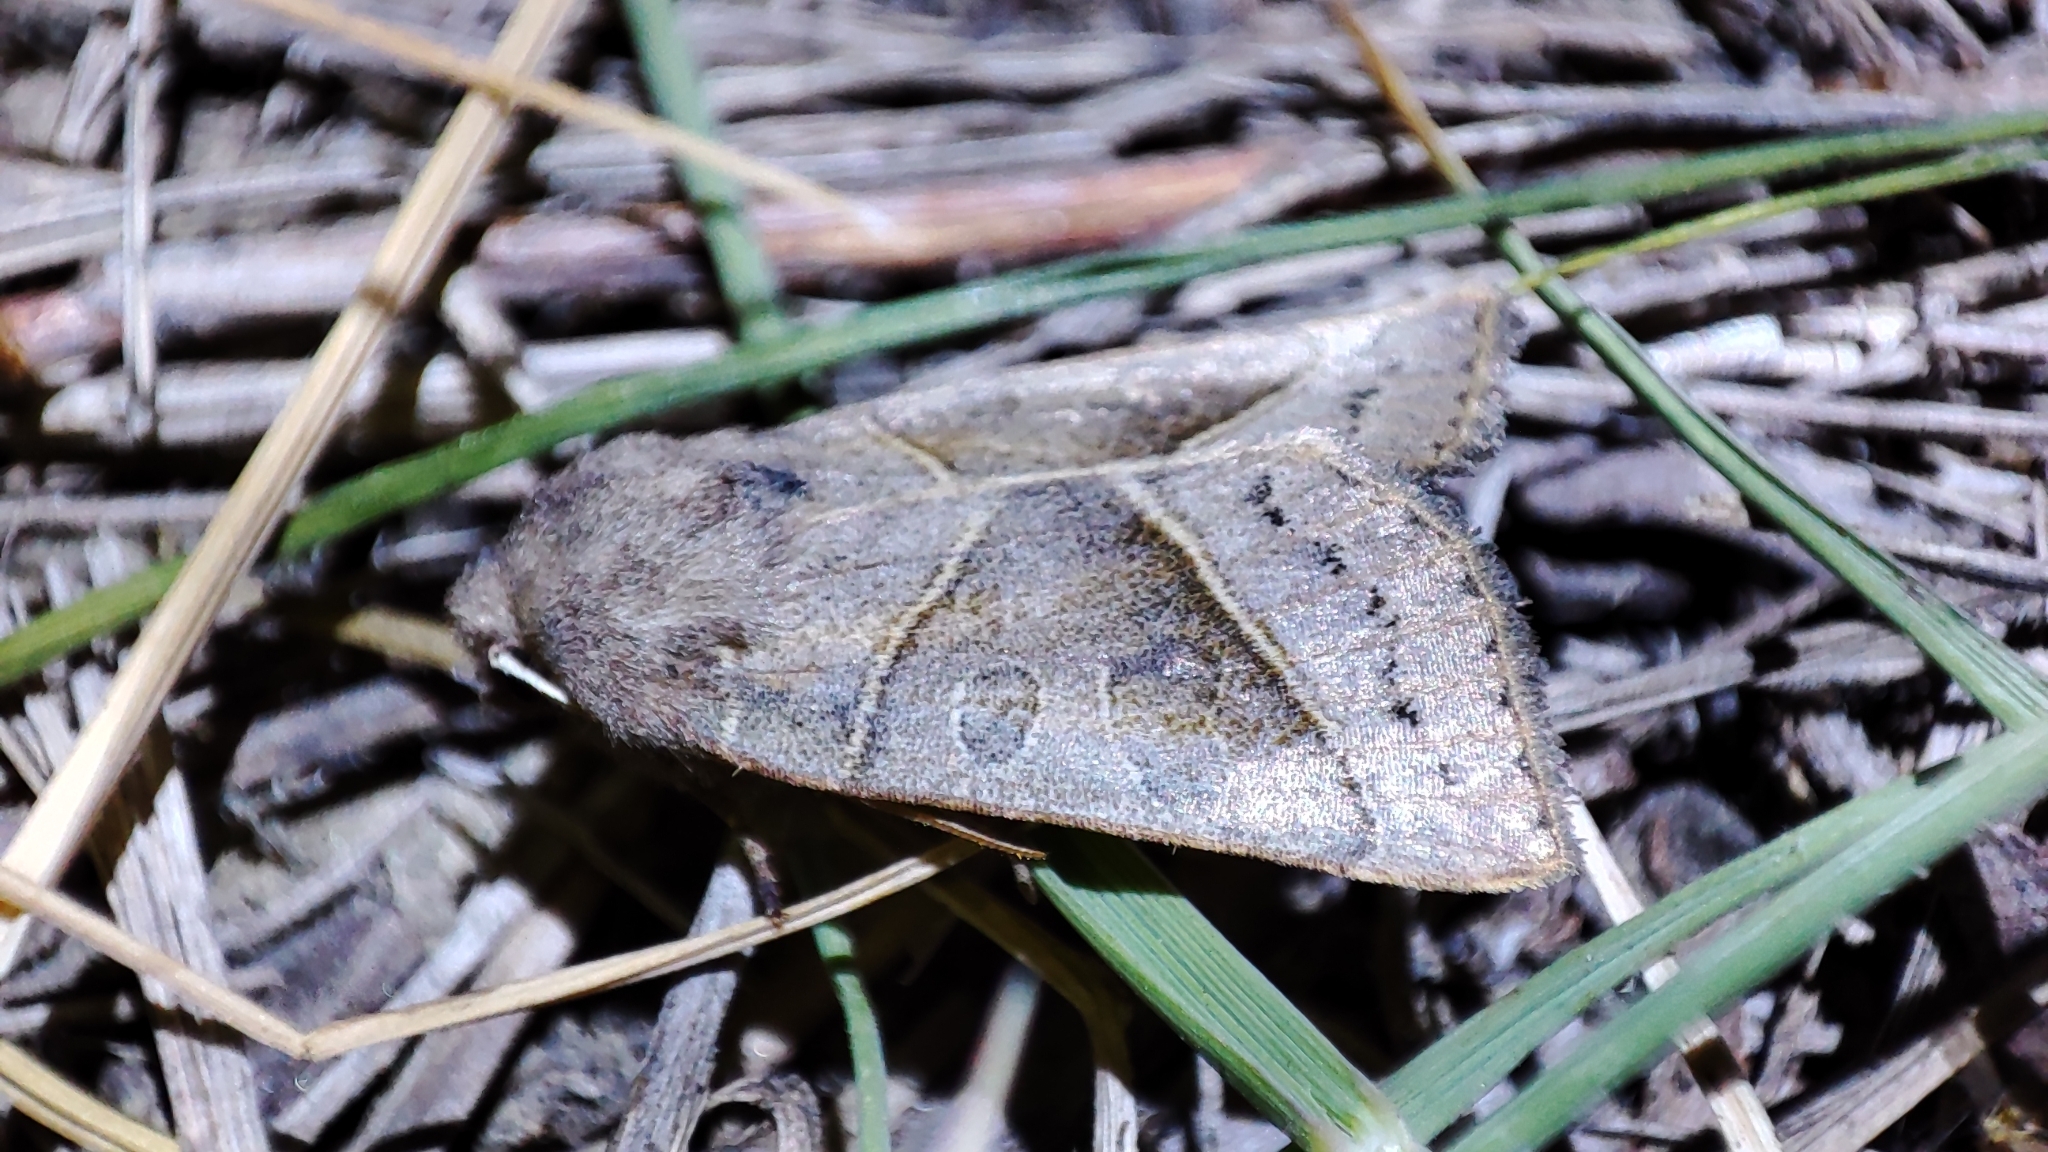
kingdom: Animalia
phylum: Arthropoda
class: Insecta
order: Lepidoptera
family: Noctuidae
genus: Mesogona
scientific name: Mesogona oxalina
